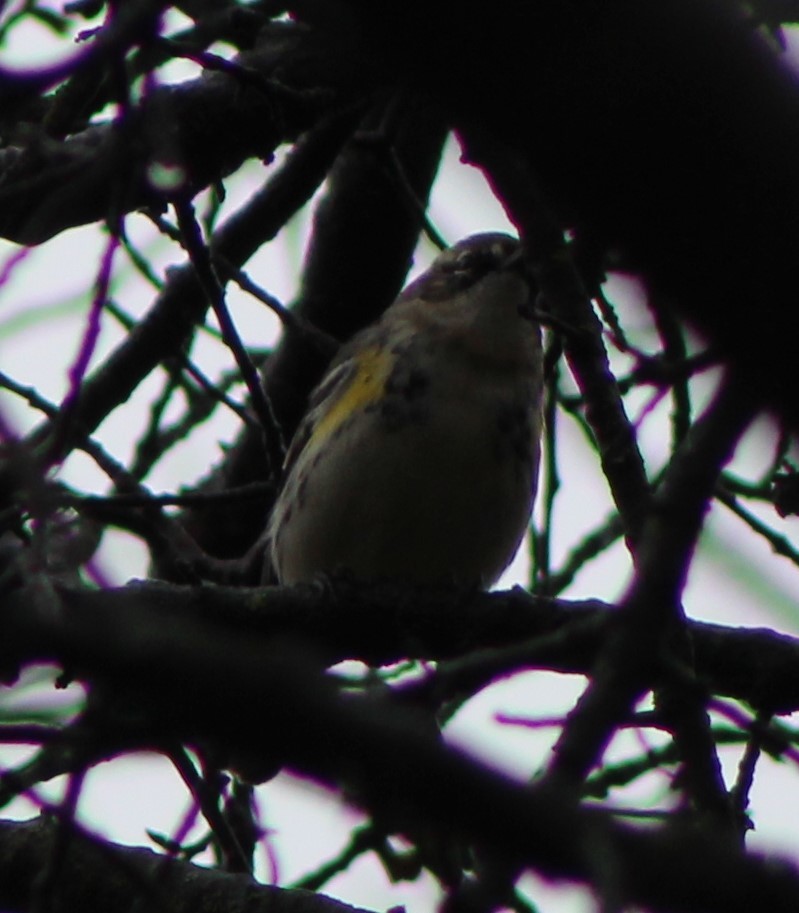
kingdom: Animalia
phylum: Chordata
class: Aves
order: Passeriformes
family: Parulidae
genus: Setophaga
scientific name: Setophaga coronata
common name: Myrtle warbler
